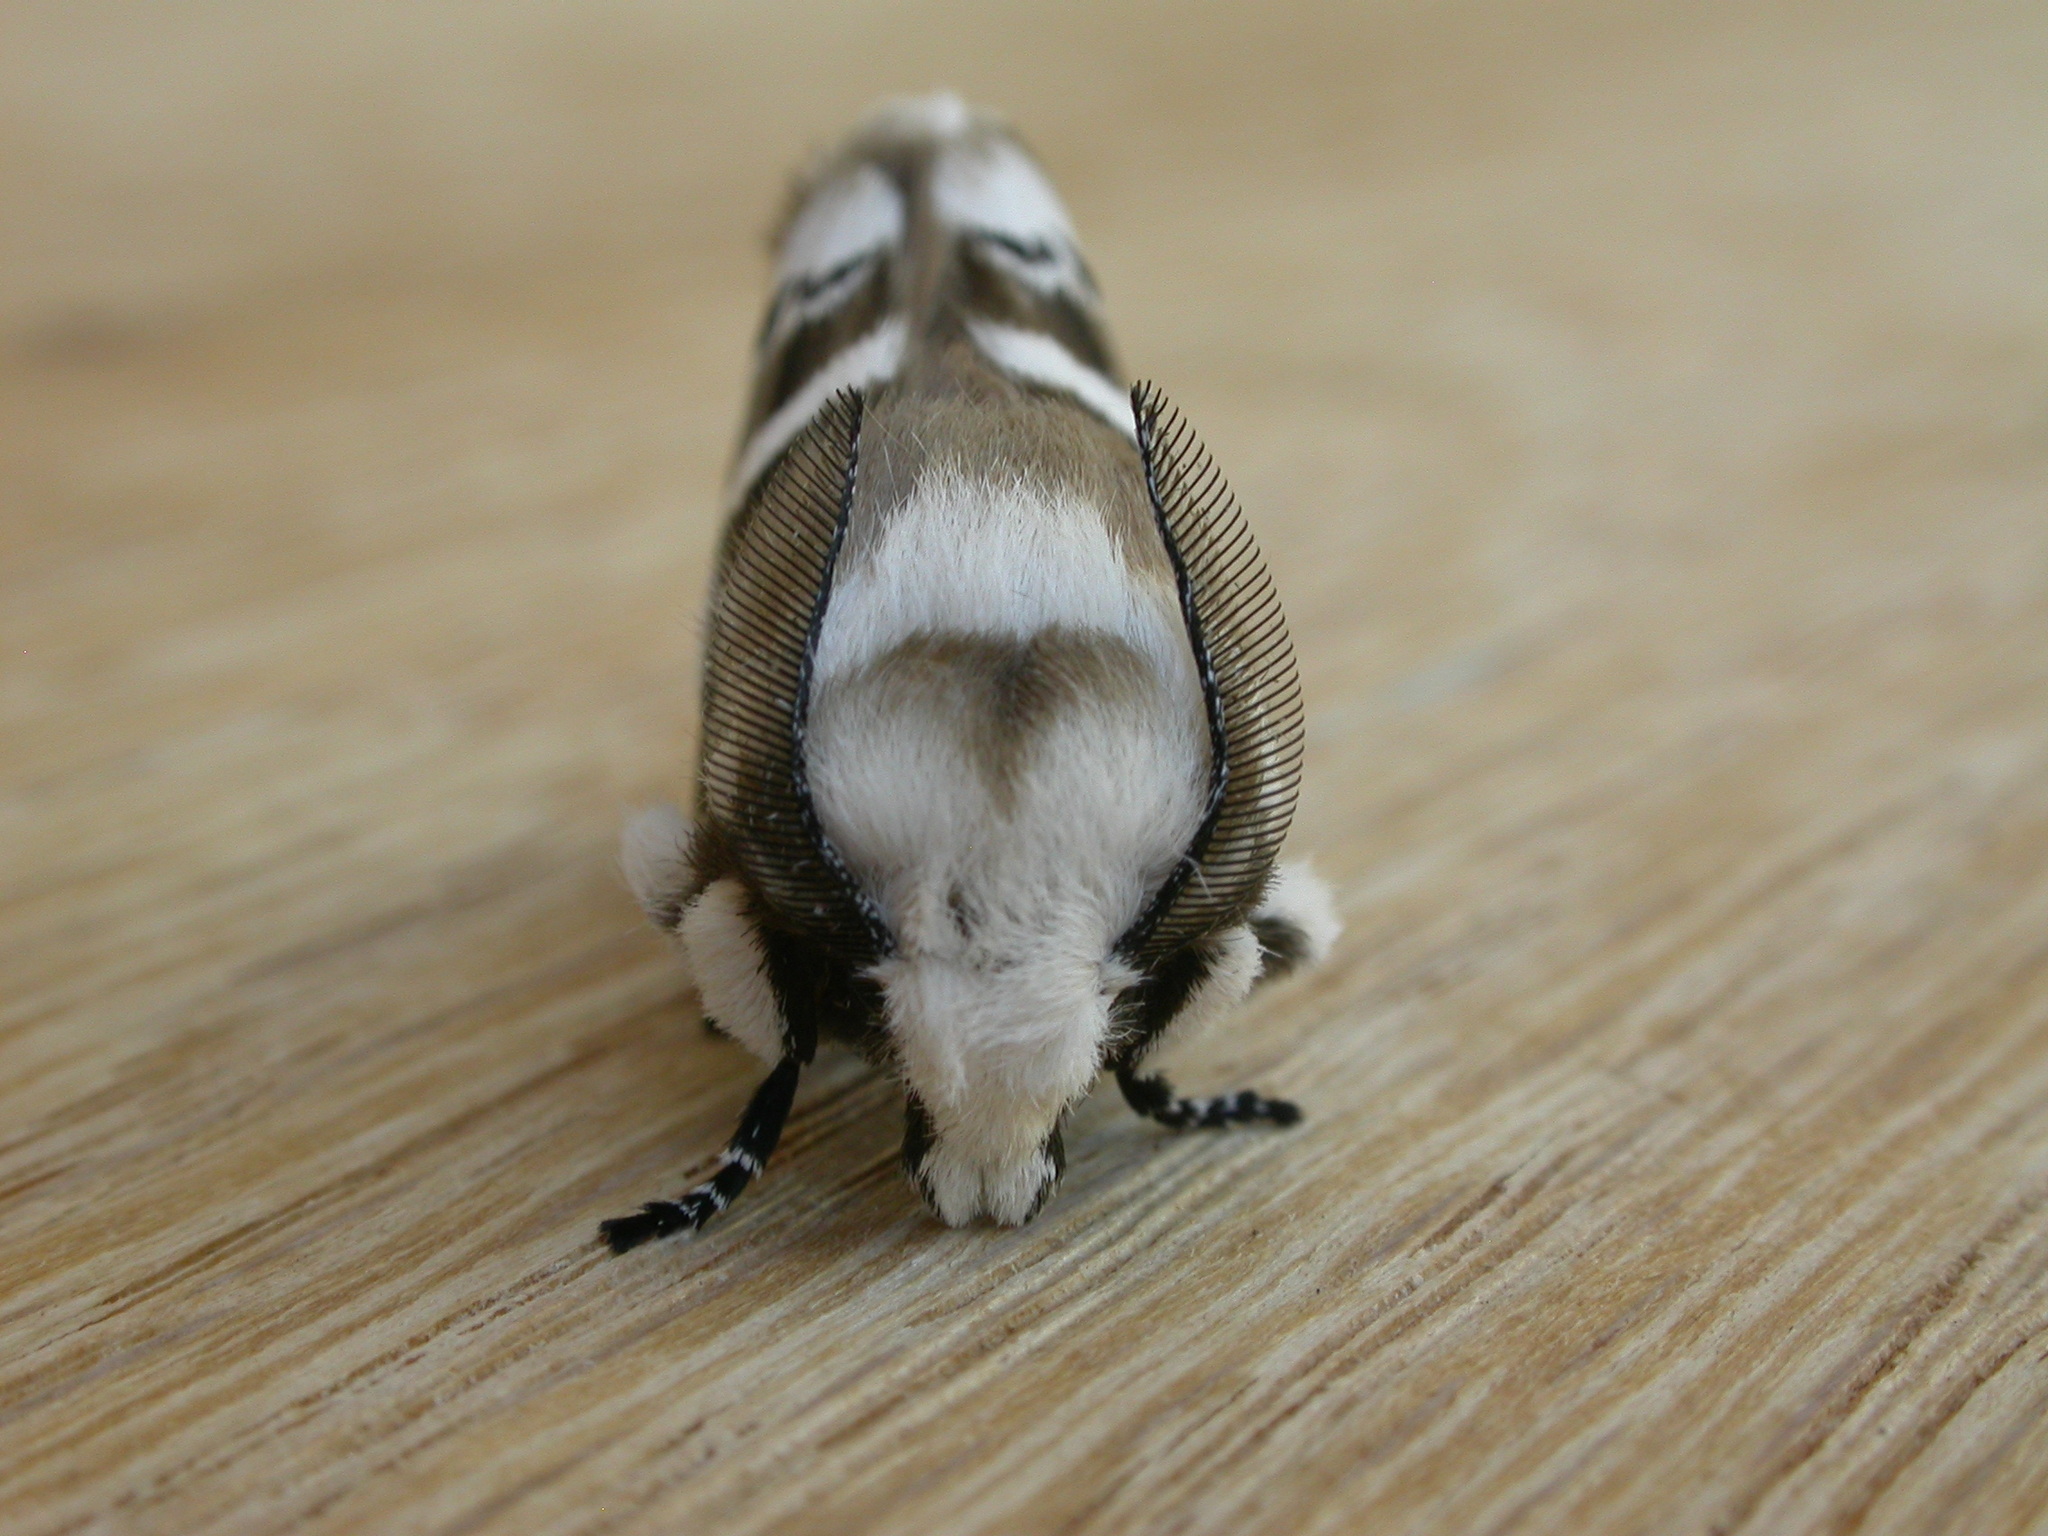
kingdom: Animalia
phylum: Arthropoda
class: Insecta
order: Lepidoptera
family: Lasiocampidae
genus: Porela
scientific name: Porela subfasciata
